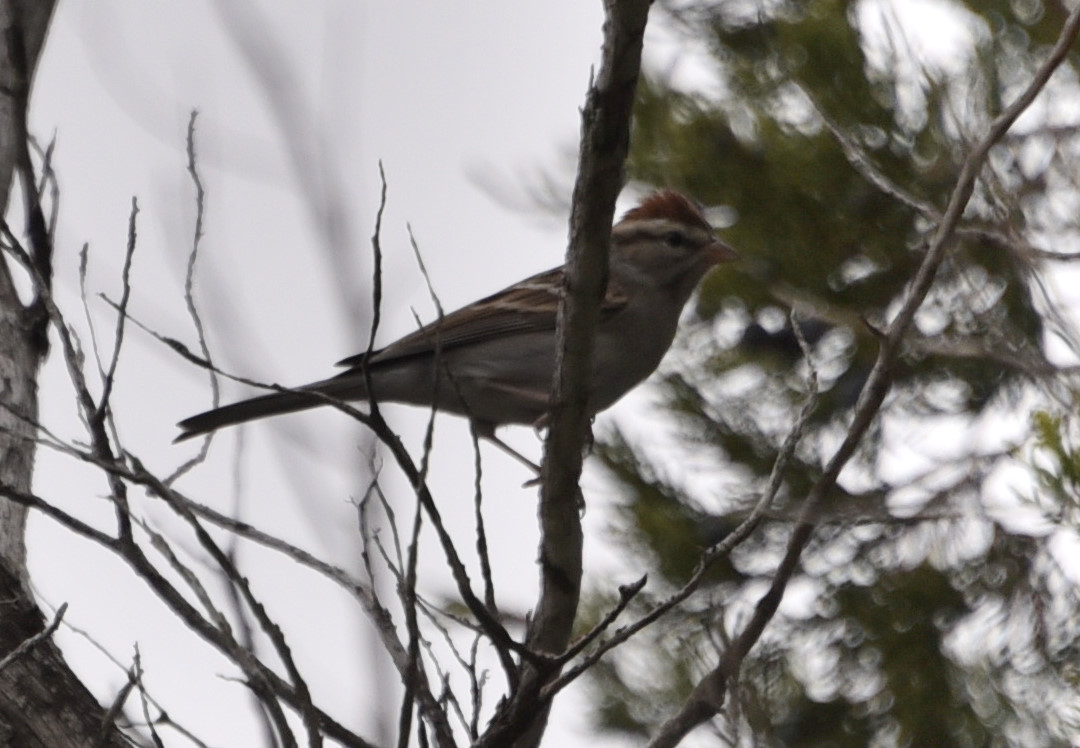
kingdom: Animalia
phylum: Chordata
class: Aves
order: Passeriformes
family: Passerellidae
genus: Spizella
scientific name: Spizella passerina
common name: Chipping sparrow
